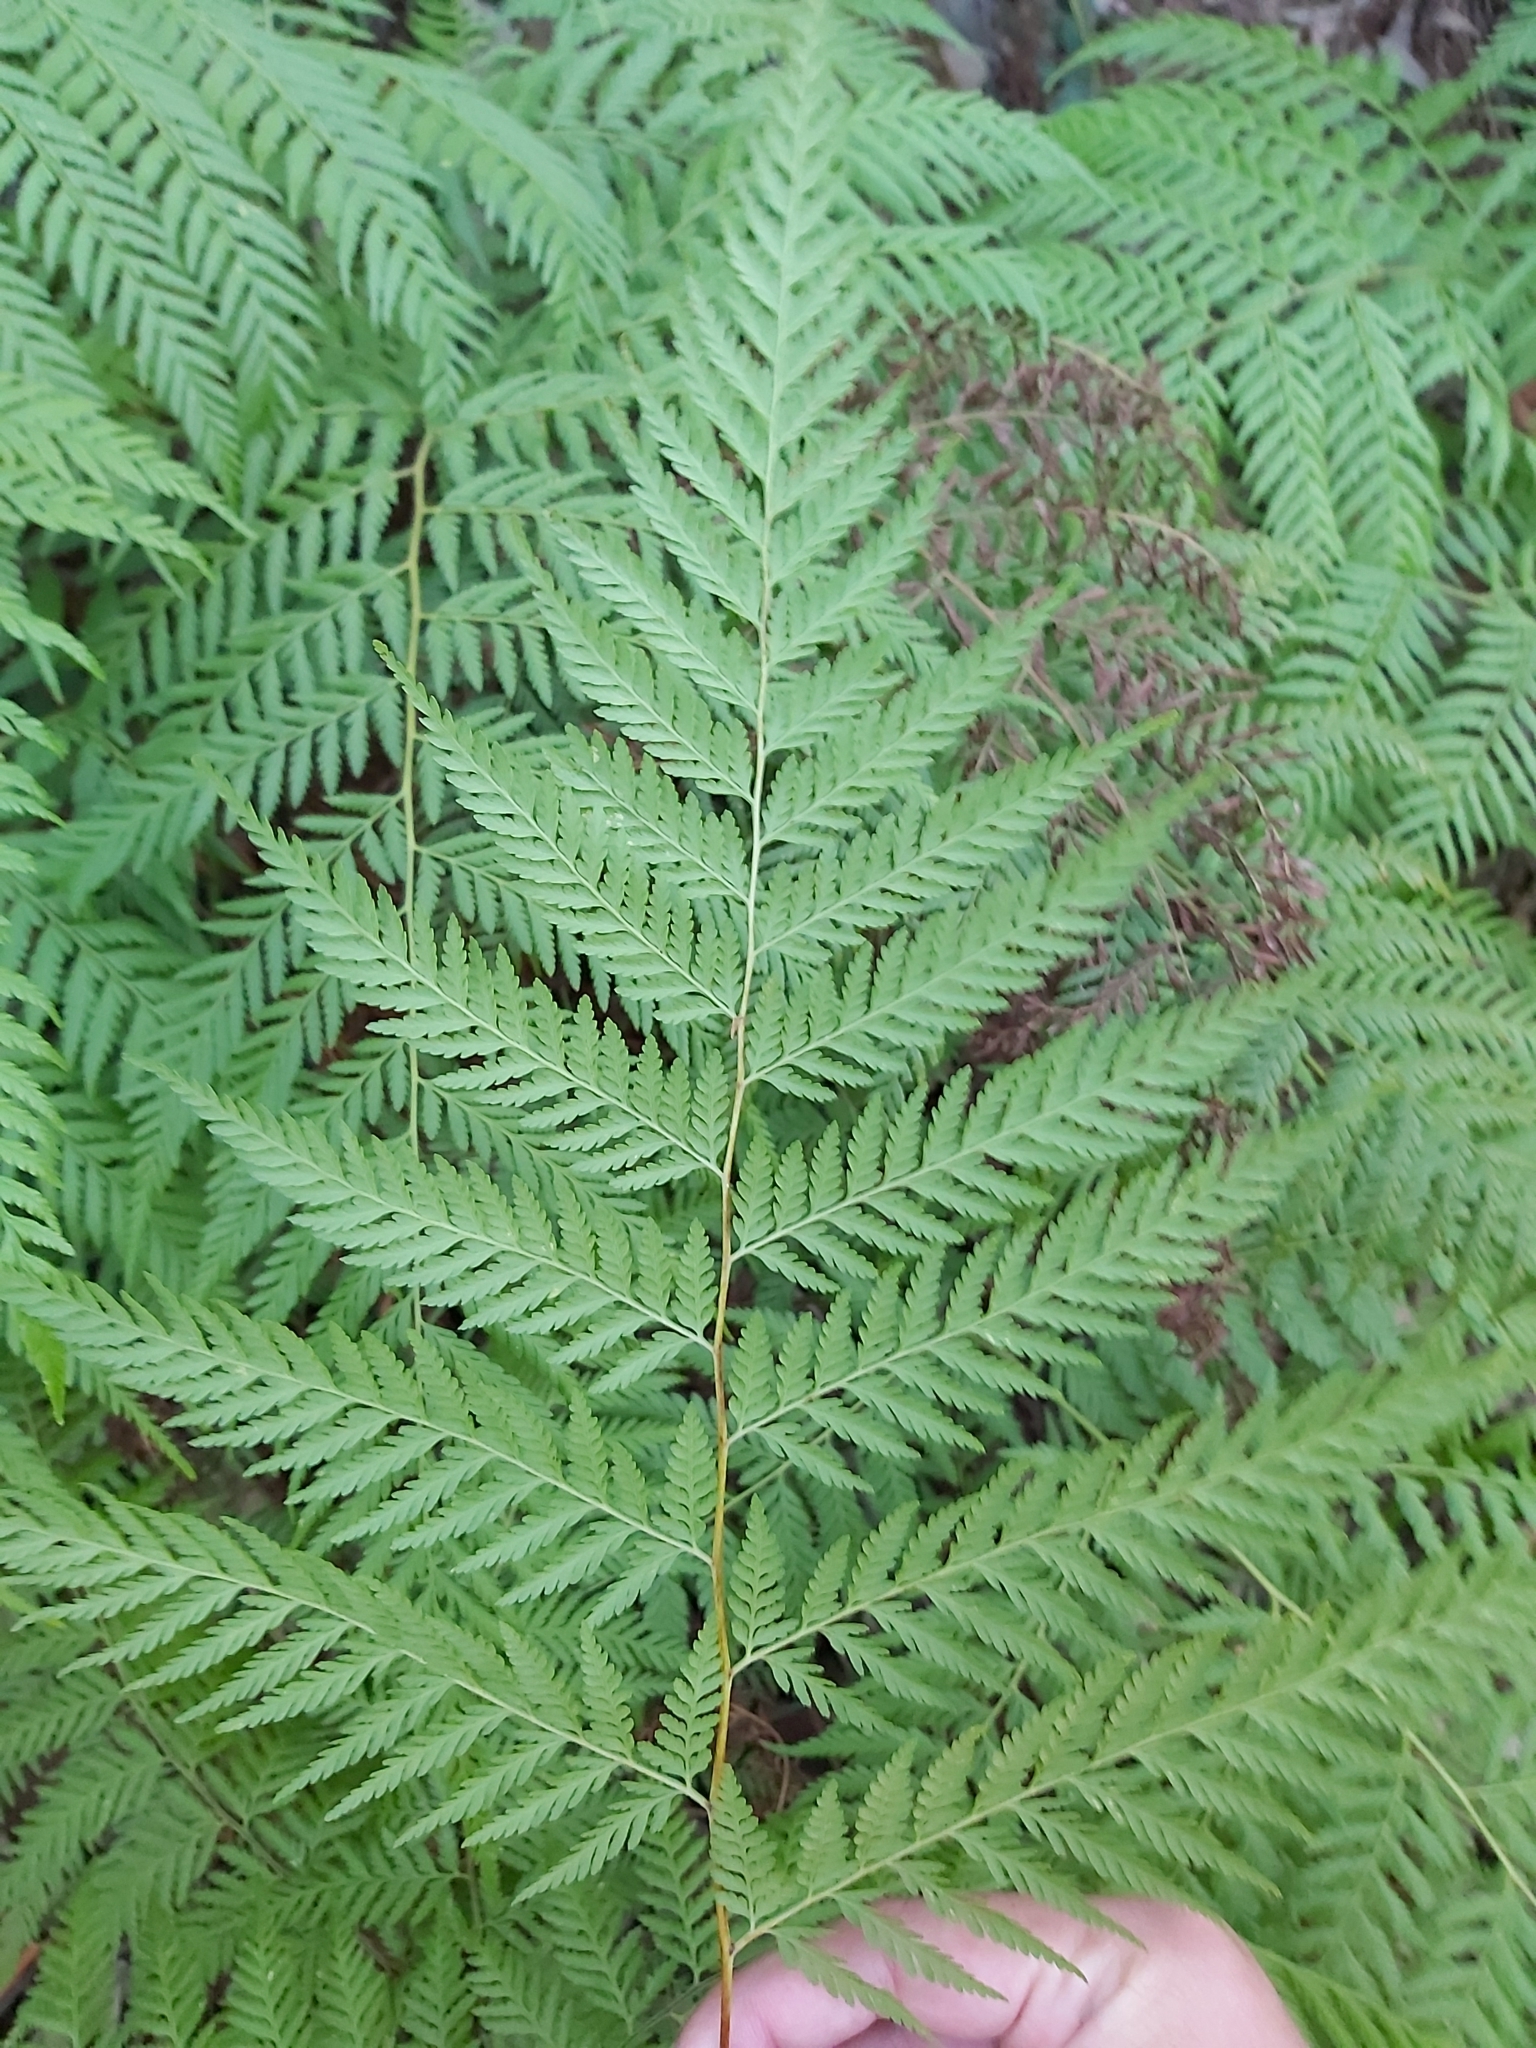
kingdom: Plantae
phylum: Tracheophyta
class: Polypodiopsida
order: Cyatheales
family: Dicksoniaceae
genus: Calochlaena
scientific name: Calochlaena dubia
